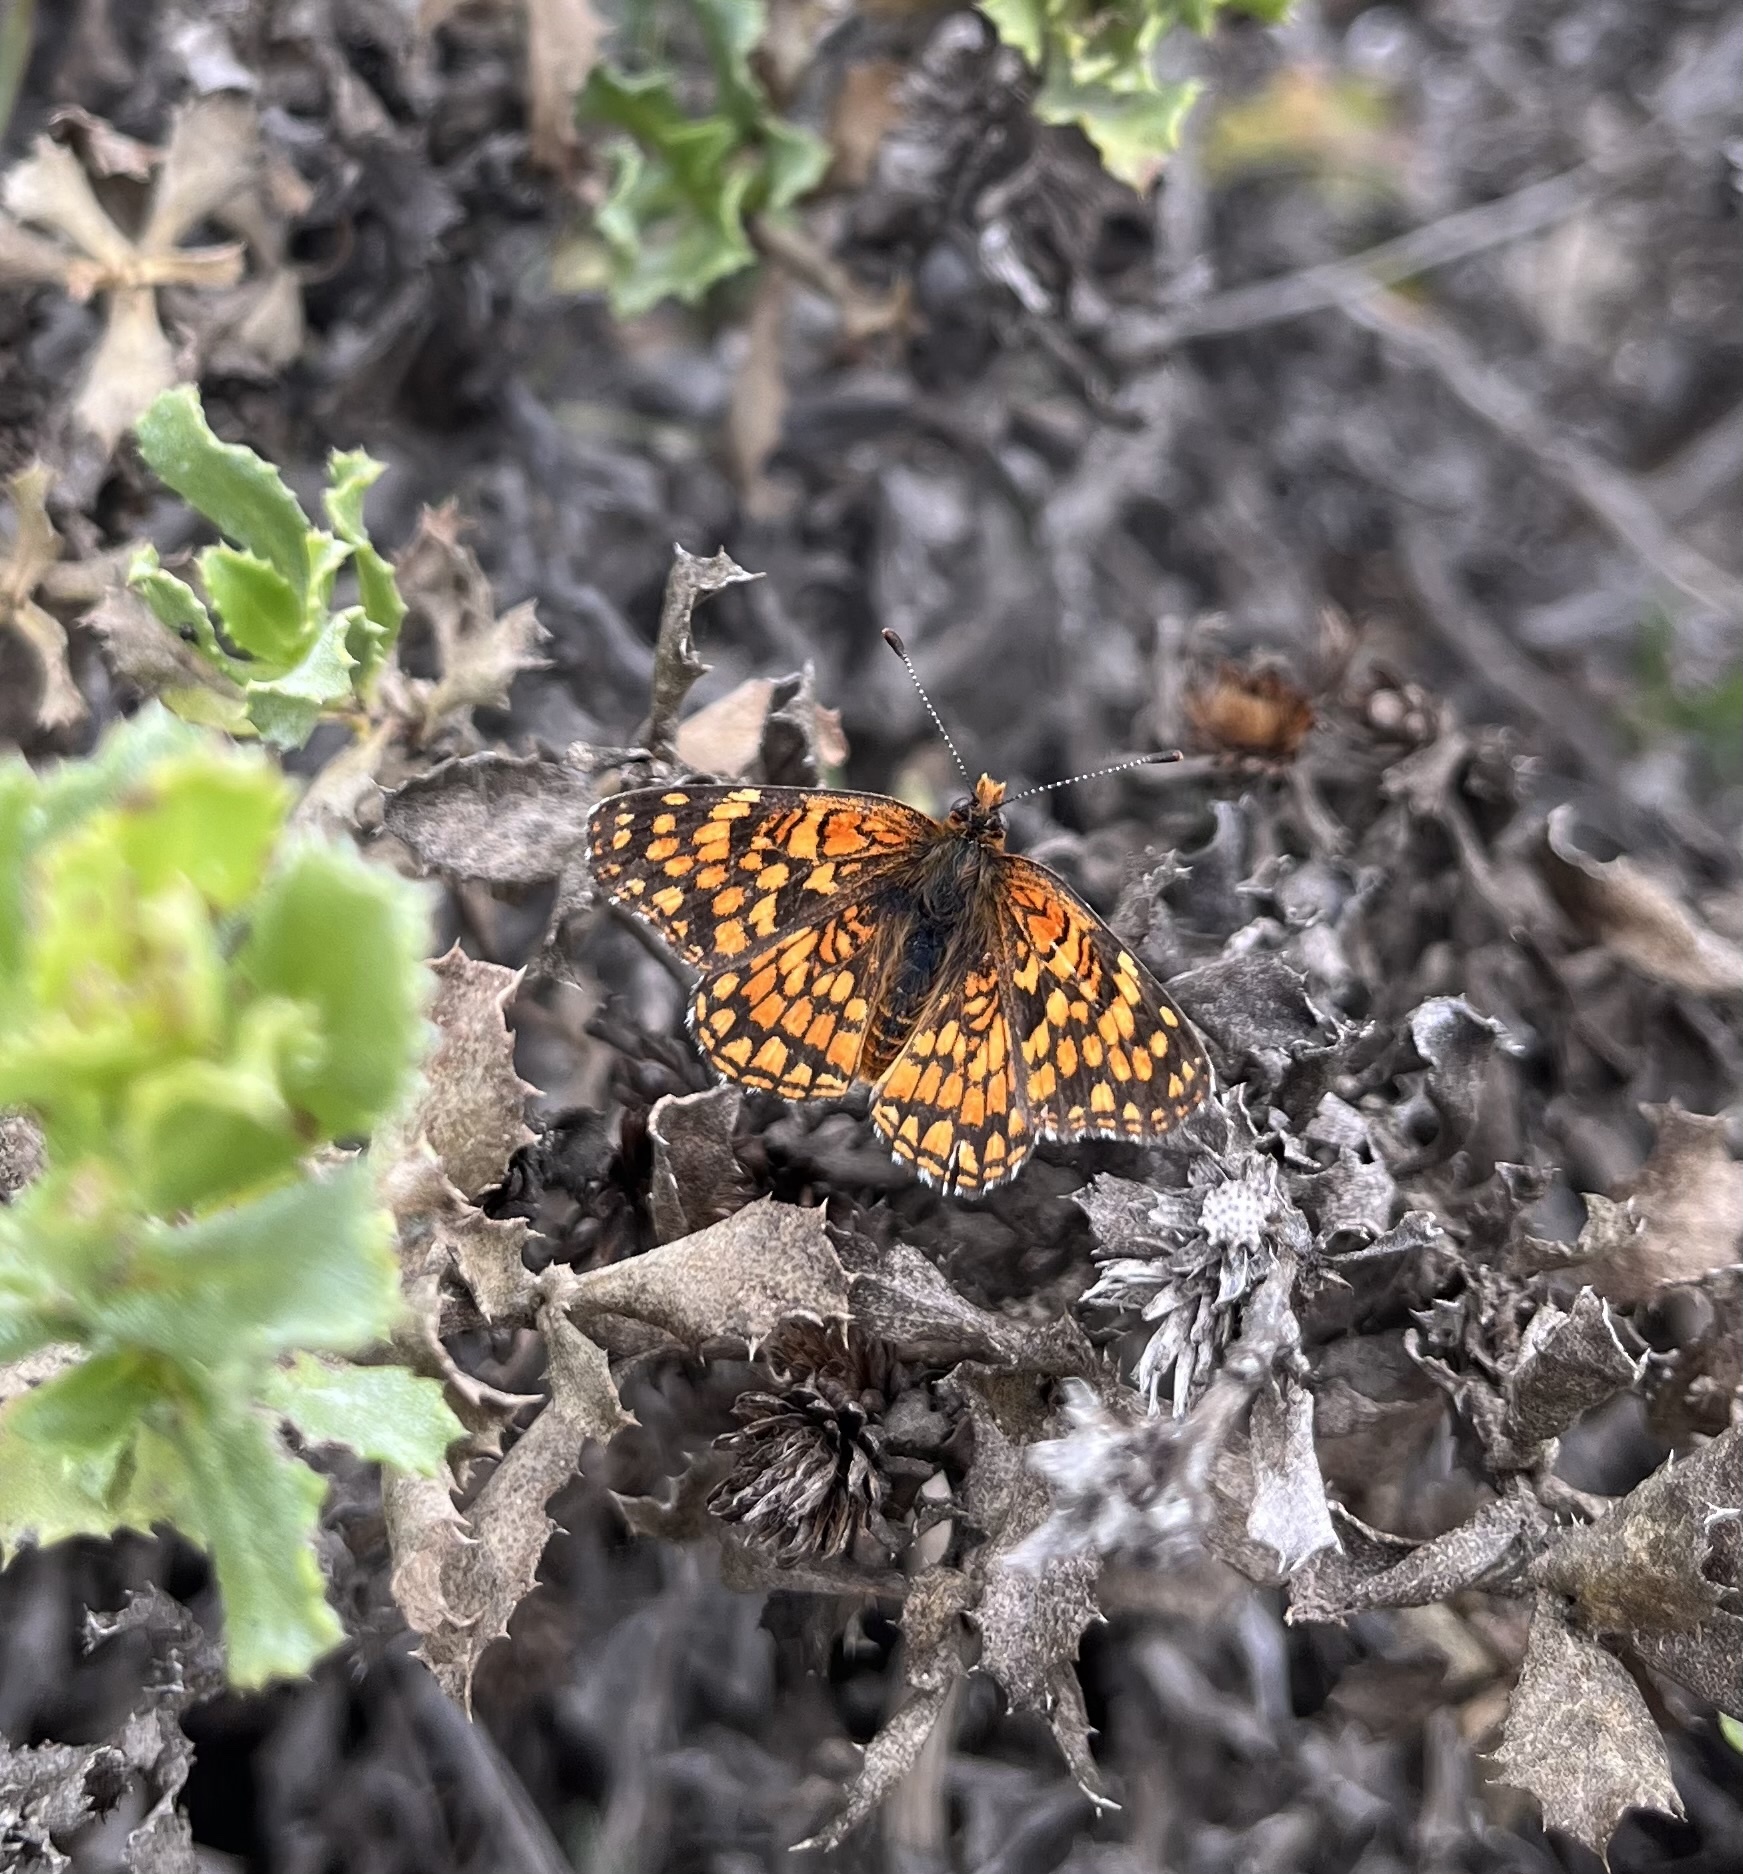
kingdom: Animalia
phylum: Arthropoda
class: Insecta
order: Lepidoptera
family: Nymphalidae
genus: Chlosyne
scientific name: Chlosyne gabbii
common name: Gabb's checkerspot
